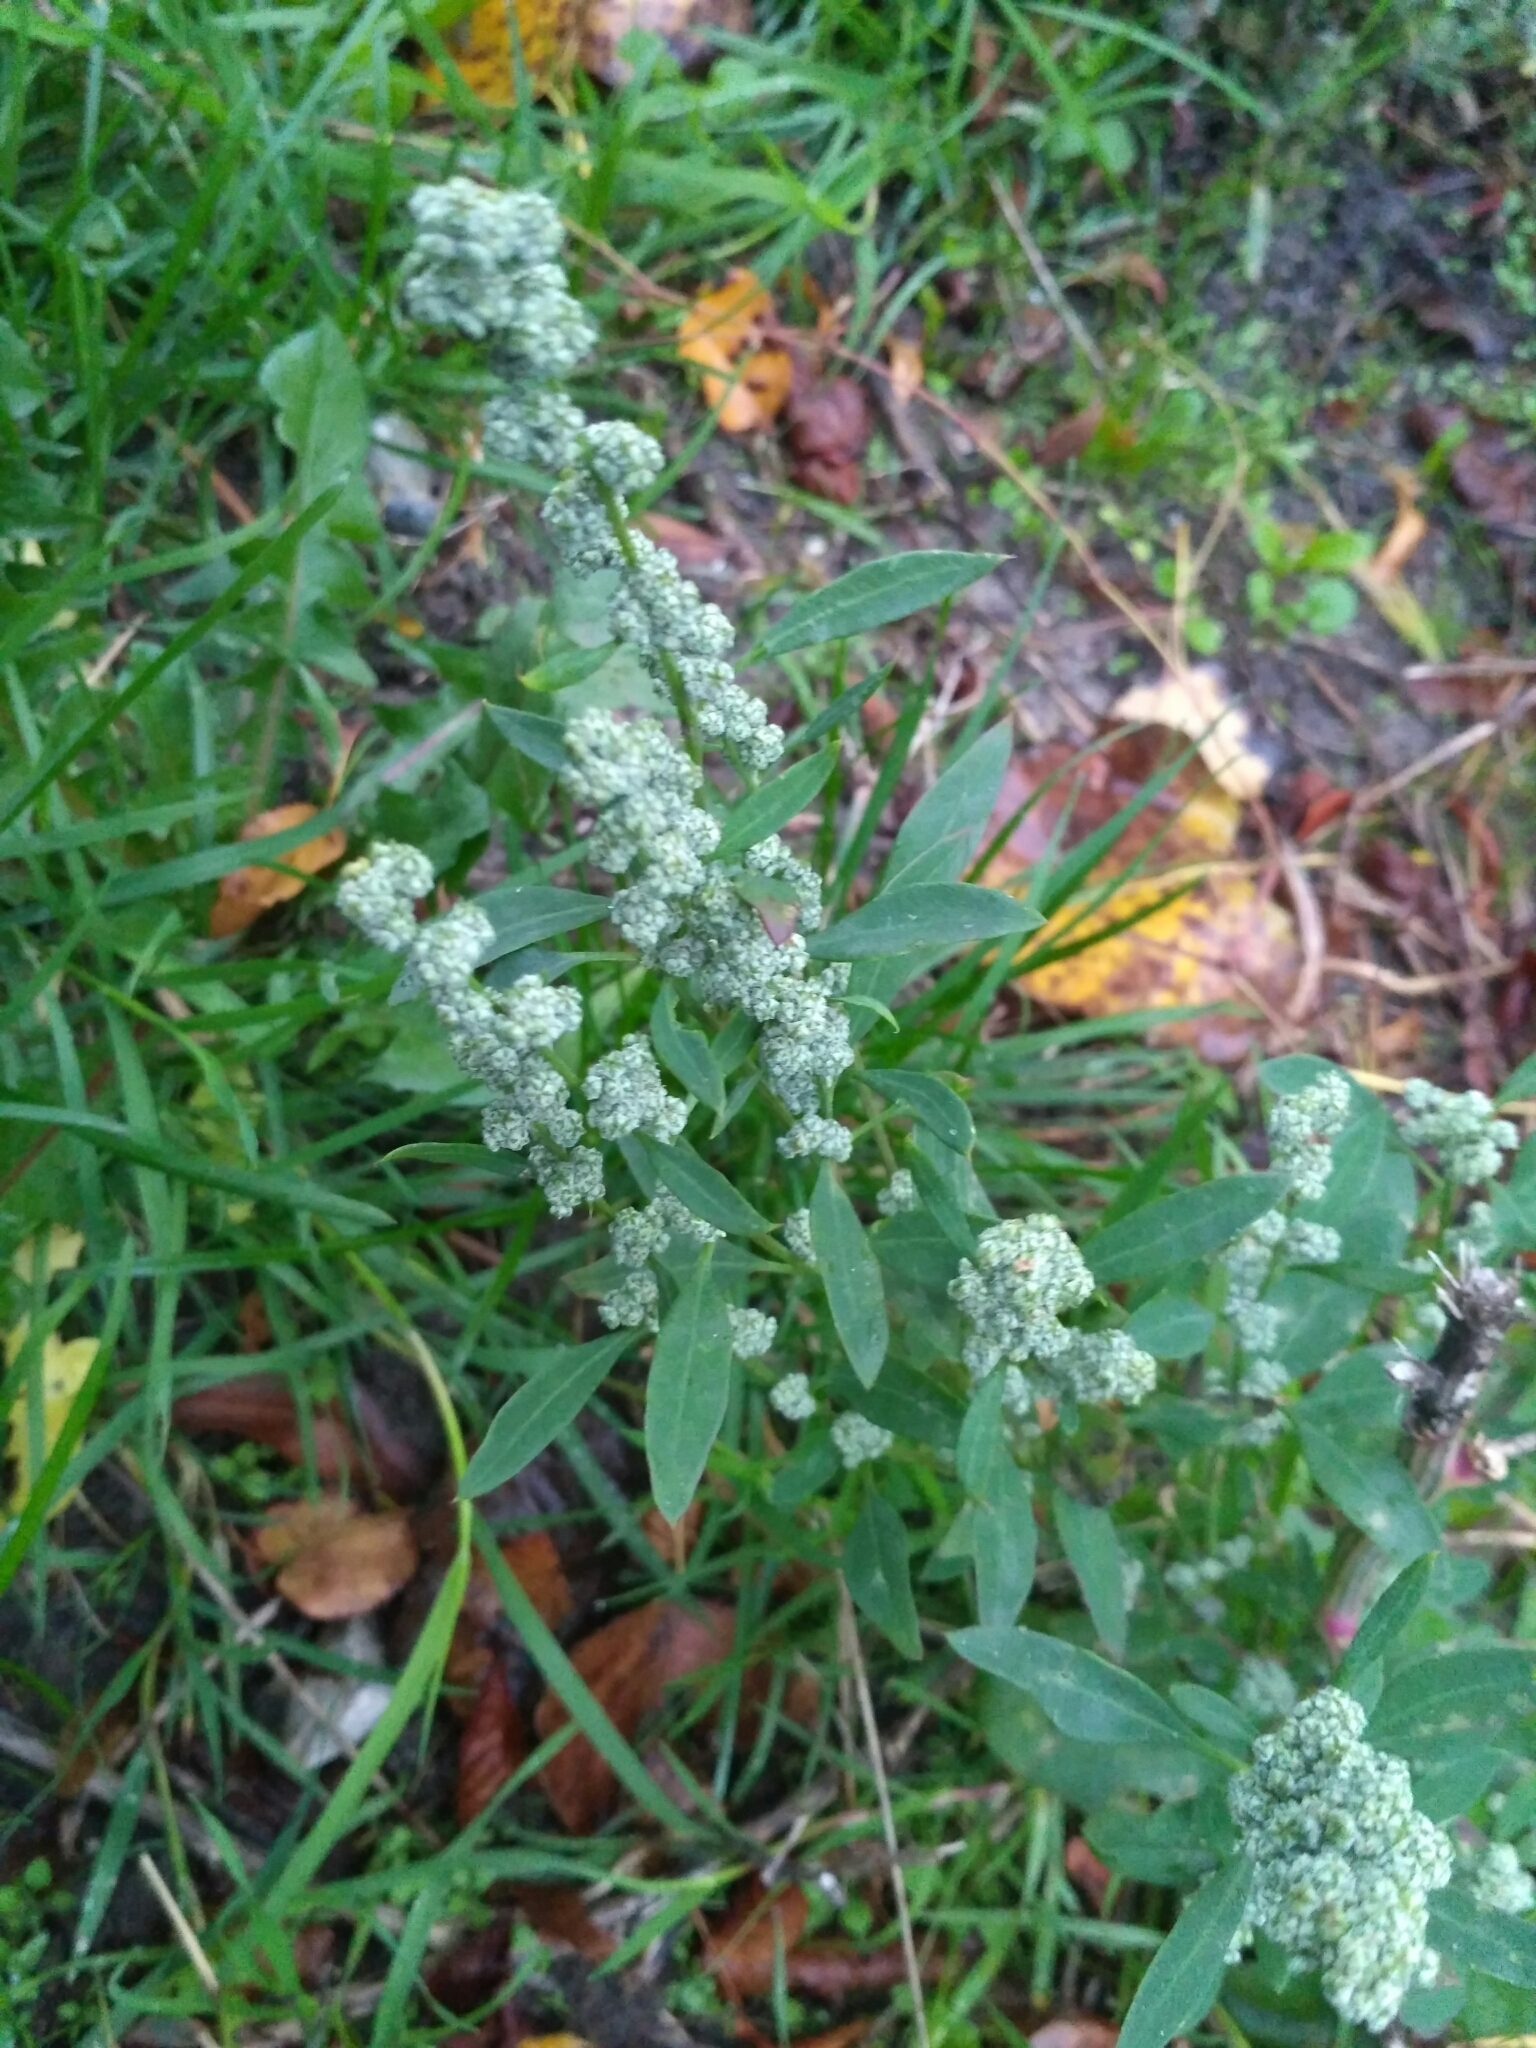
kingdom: Plantae
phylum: Tracheophyta
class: Magnoliopsida
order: Caryophyllales
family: Amaranthaceae
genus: Chenopodium
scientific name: Chenopodium album
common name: Fat-hen
